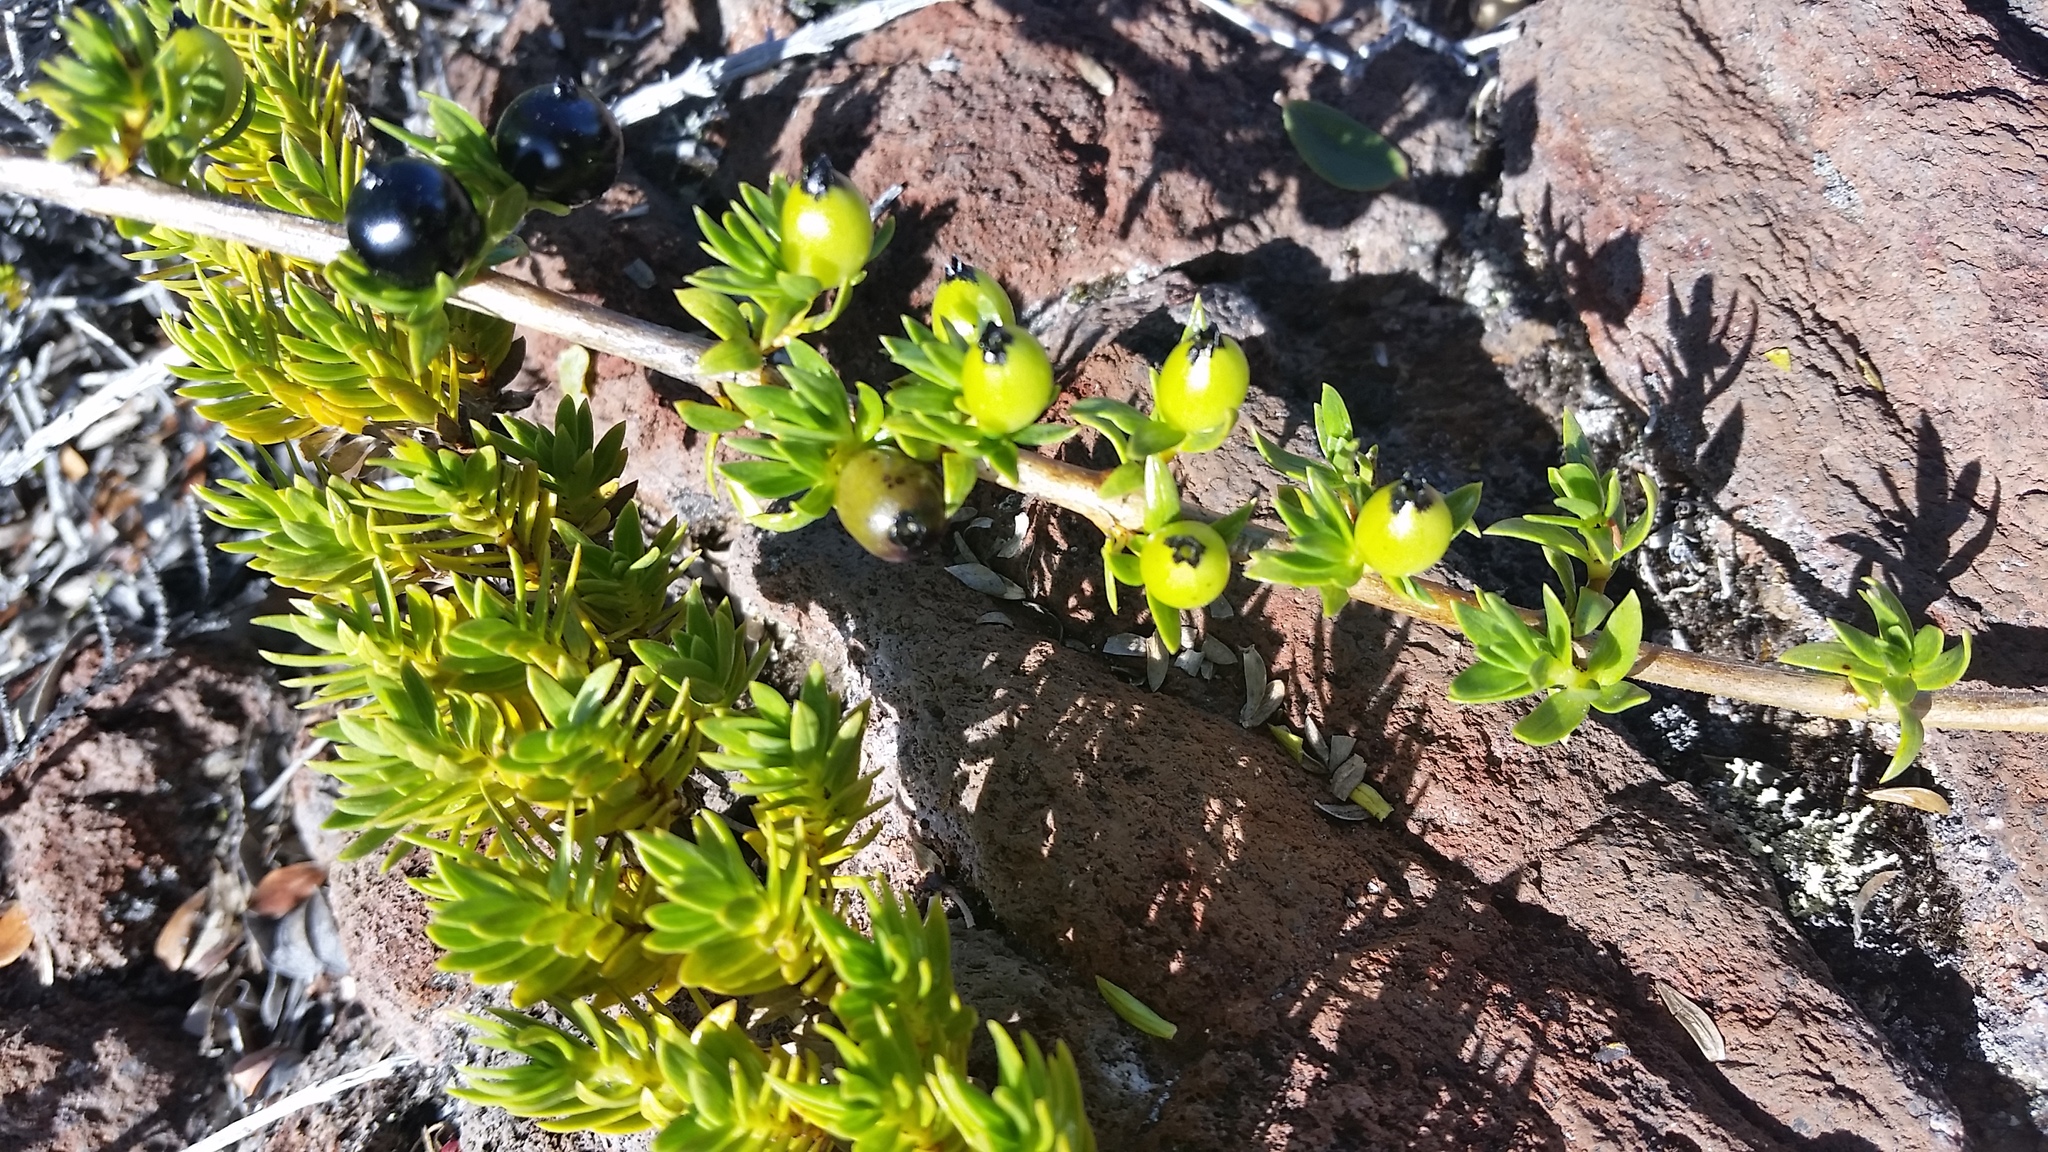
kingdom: Plantae
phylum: Tracheophyta
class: Magnoliopsida
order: Gentianales
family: Rubiaceae
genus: Coprosma
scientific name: Coprosma ernodeoides
